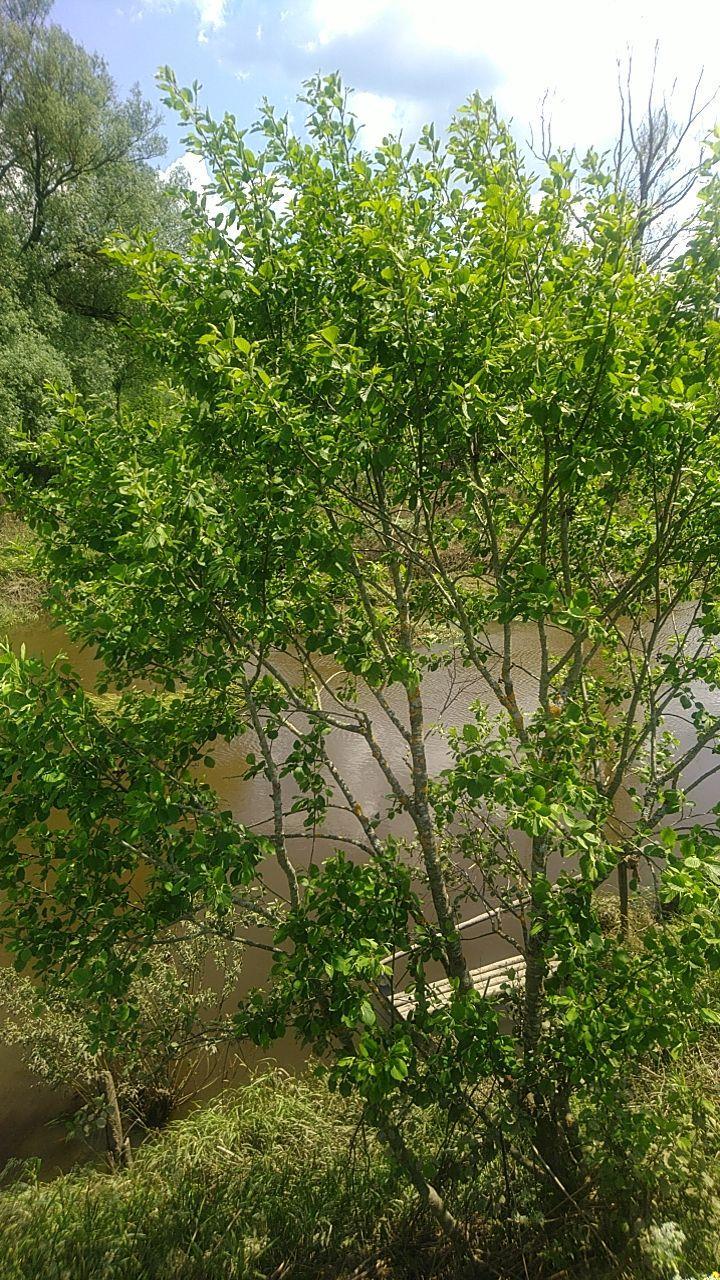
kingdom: Plantae
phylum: Tracheophyta
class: Magnoliopsida
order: Fagales
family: Betulaceae
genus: Alnus
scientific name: Alnus incana
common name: Grey alder
